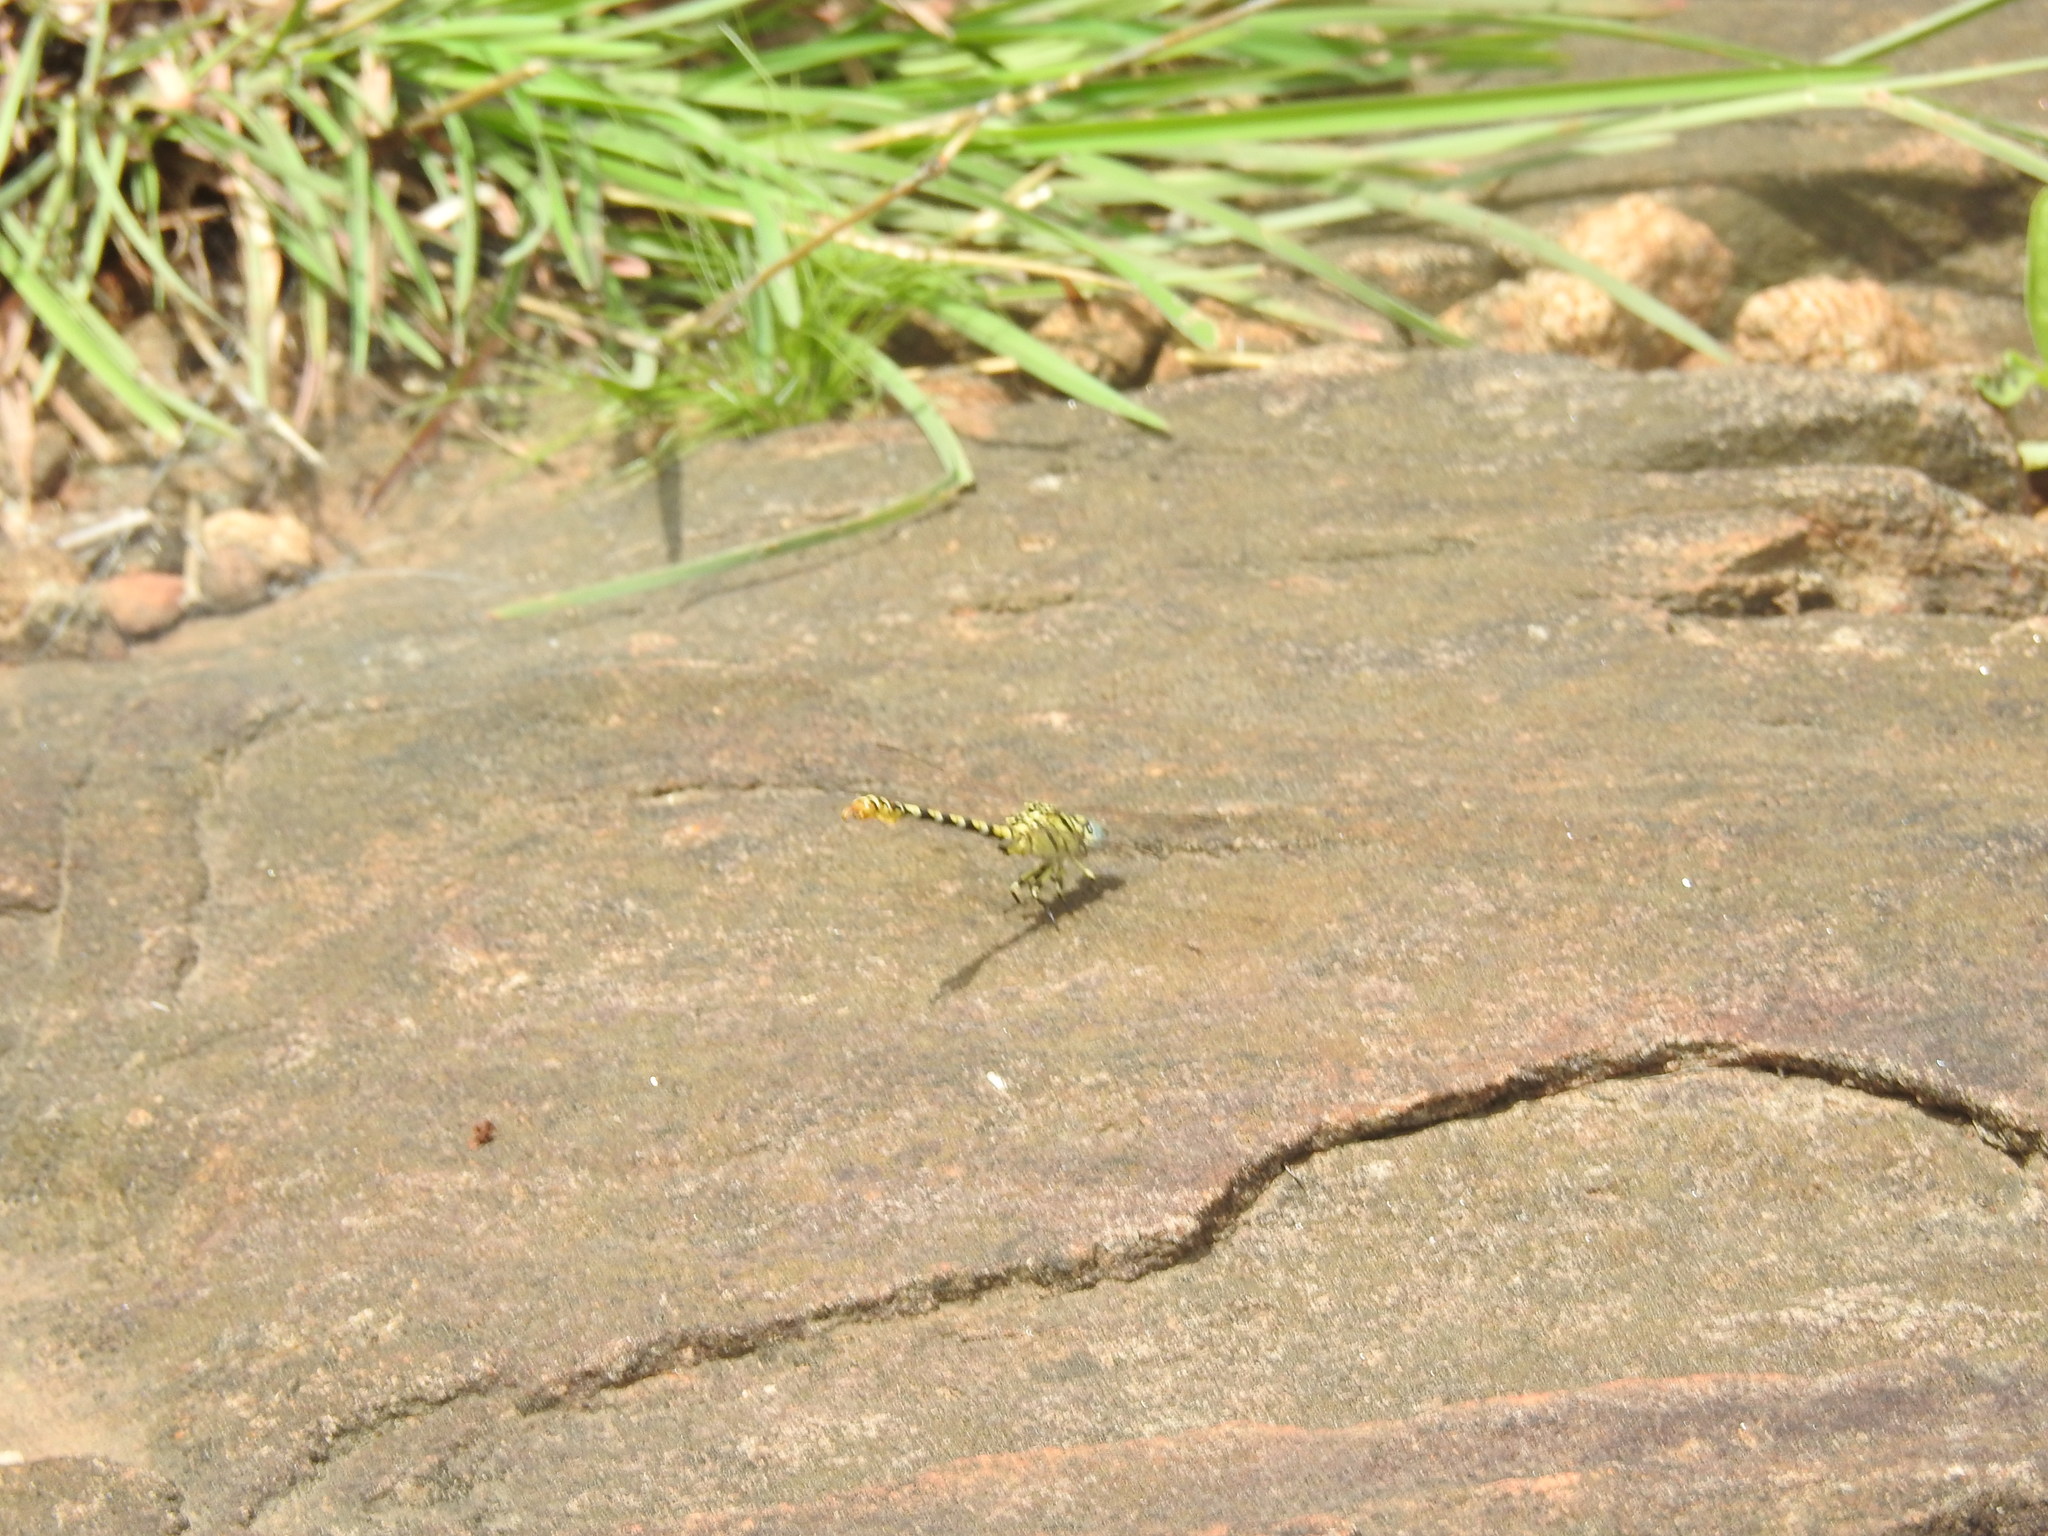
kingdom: Animalia
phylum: Arthropoda
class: Insecta
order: Odonata
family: Gomphidae
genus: Paragomphus
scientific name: Paragomphus lineatus
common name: Lined hooktail
